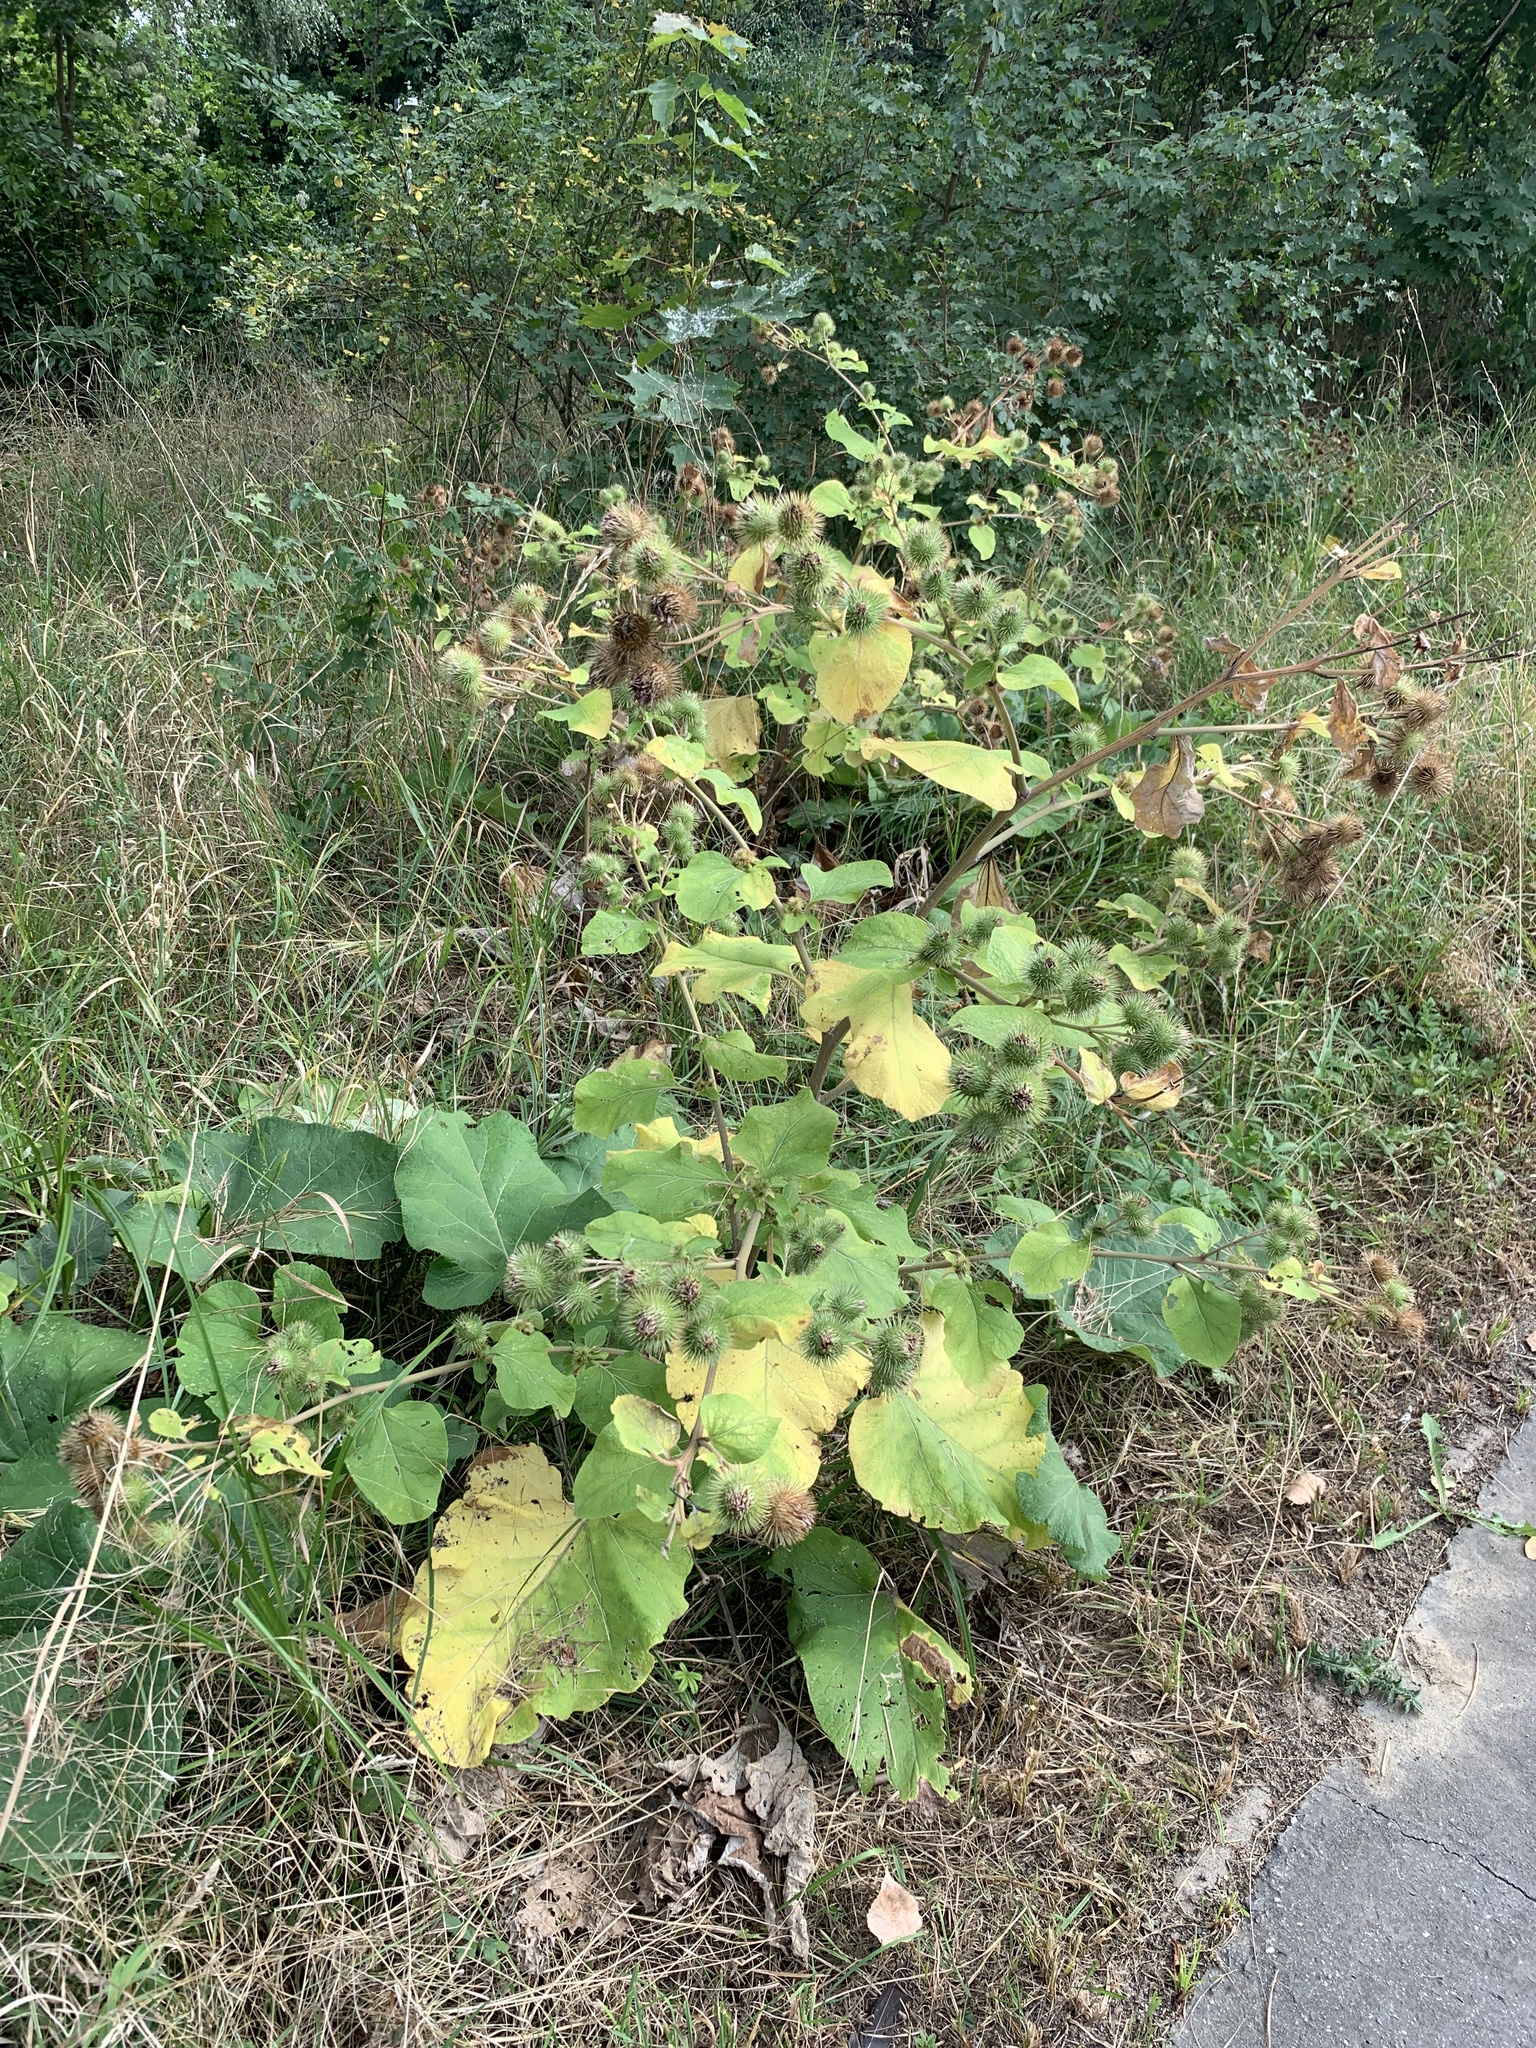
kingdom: Plantae
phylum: Tracheophyta
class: Magnoliopsida
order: Asterales
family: Asteraceae
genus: Arctium
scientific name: Arctium lappa
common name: Greater burdock
